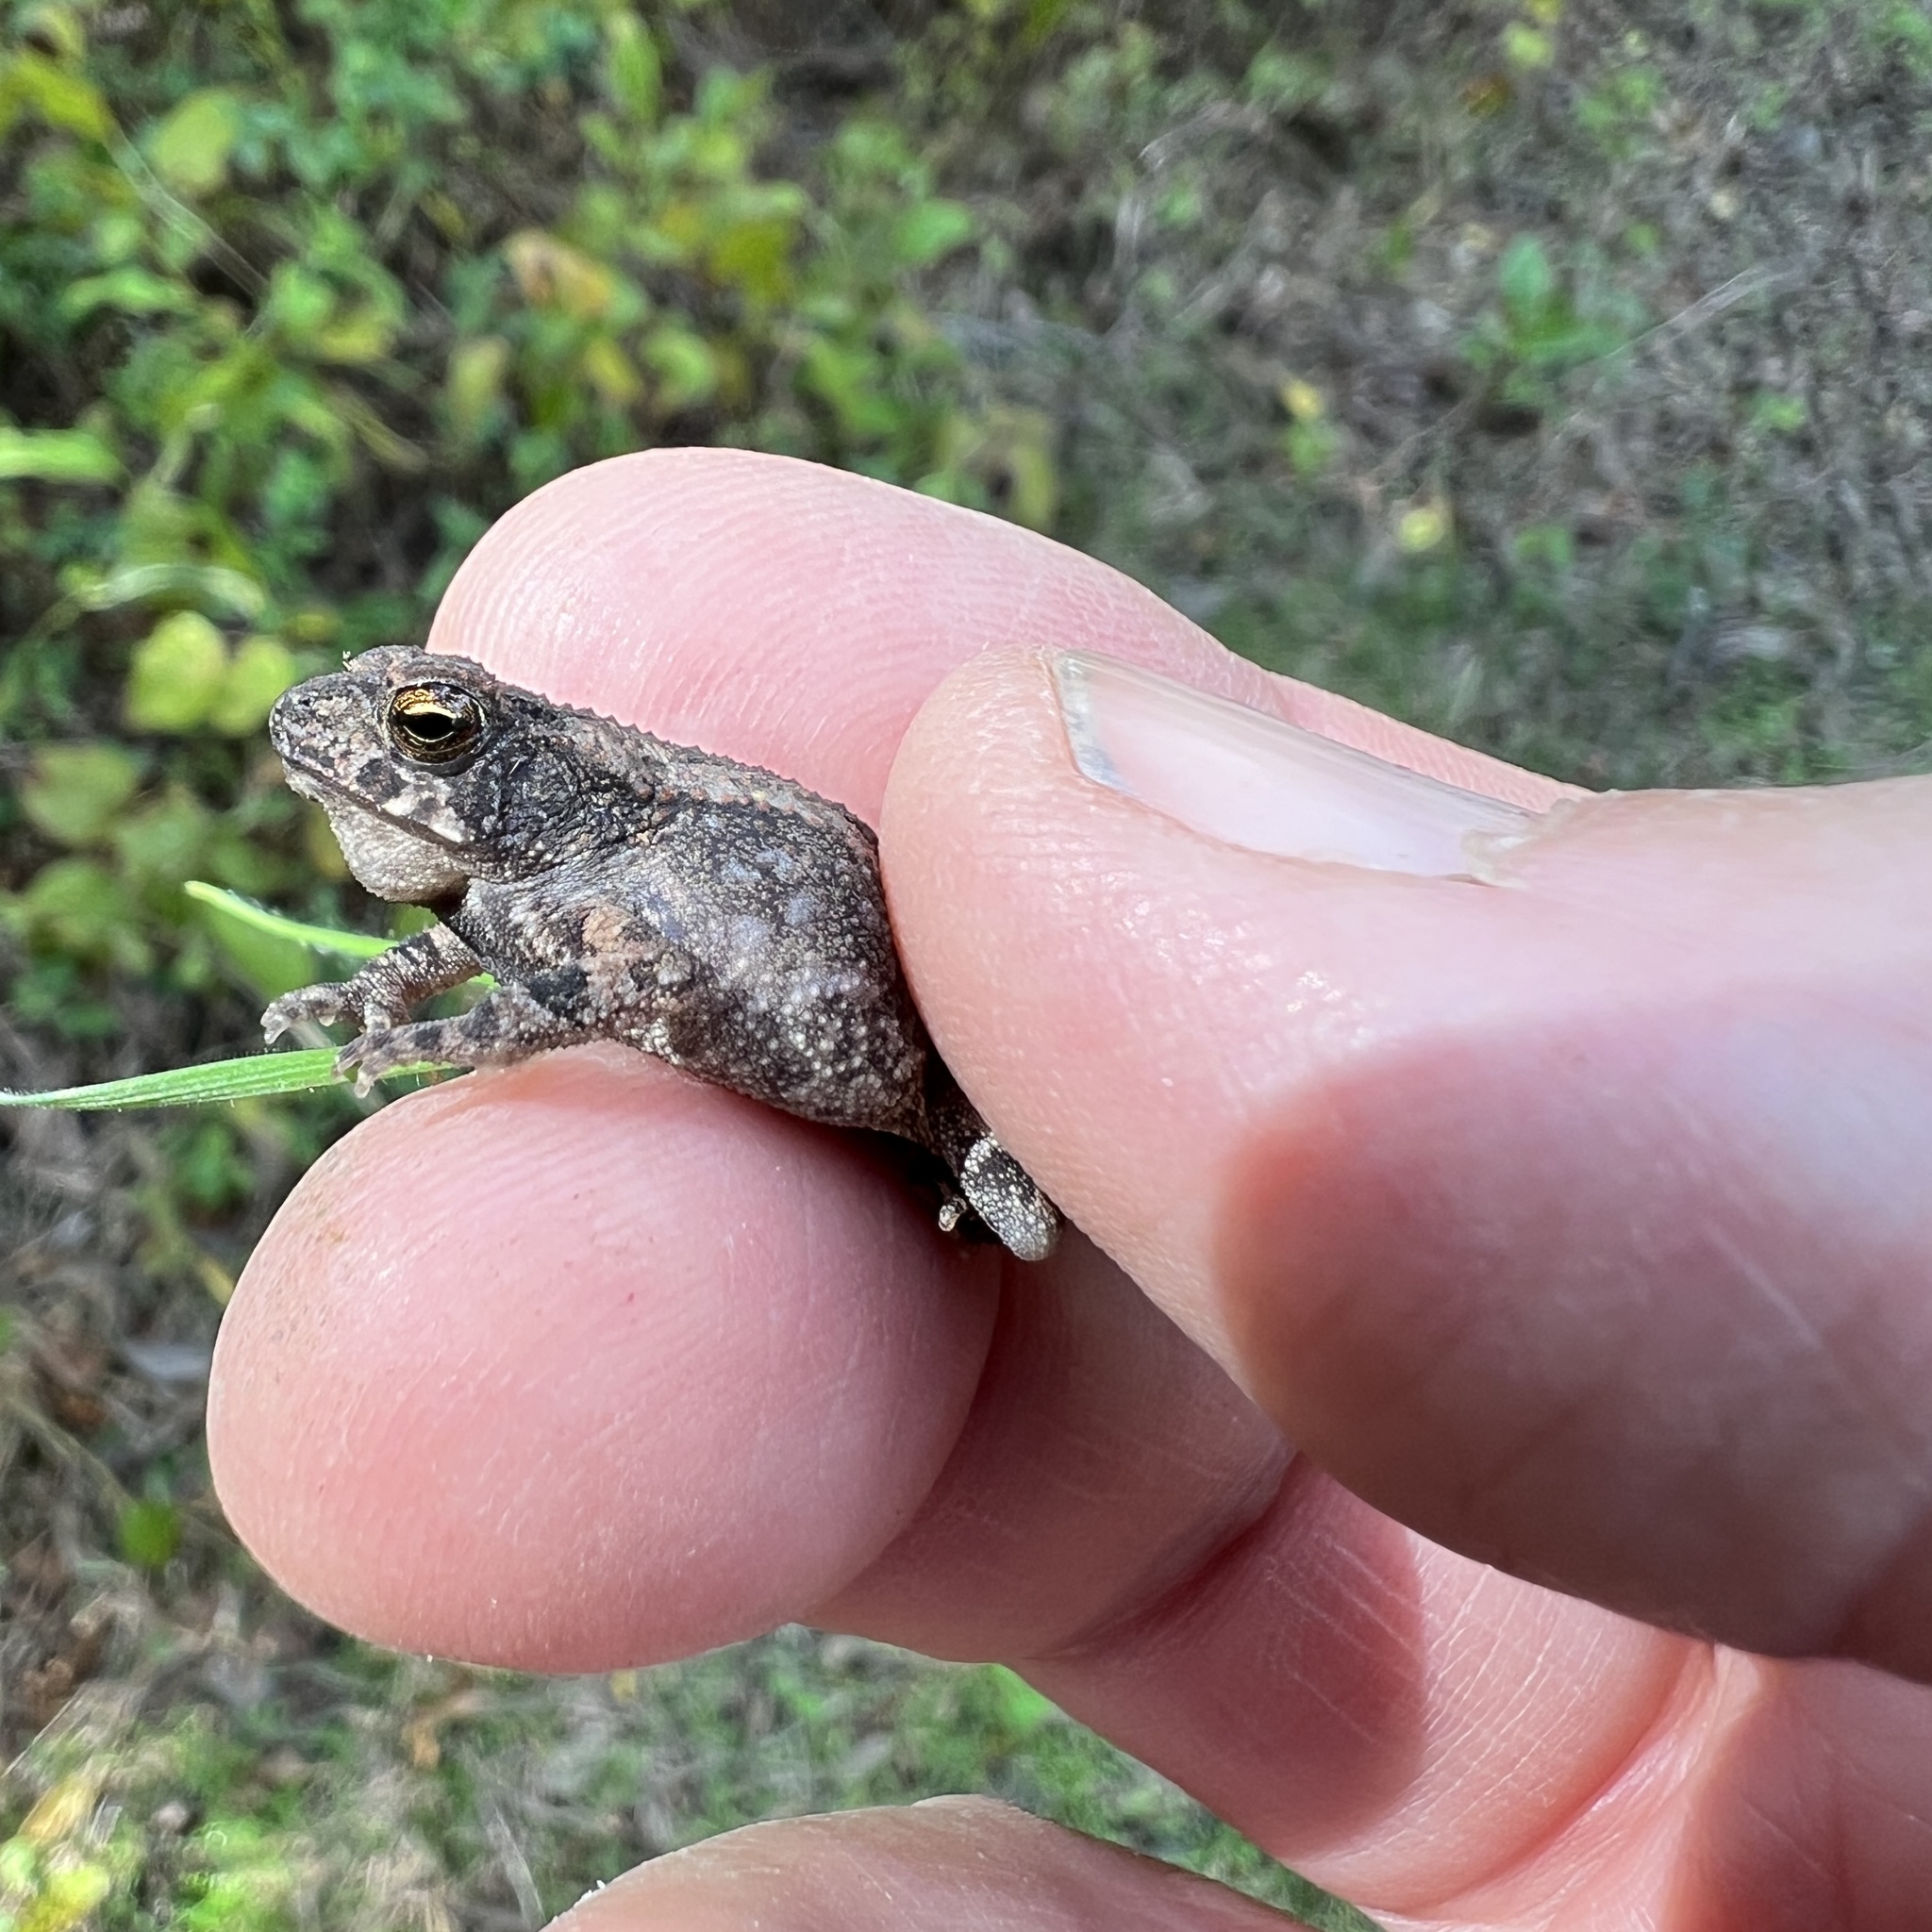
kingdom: Animalia
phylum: Chordata
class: Amphibia
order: Anura
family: Bufonidae
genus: Incilius
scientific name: Incilius nebulifer
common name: Gulf coast toad
